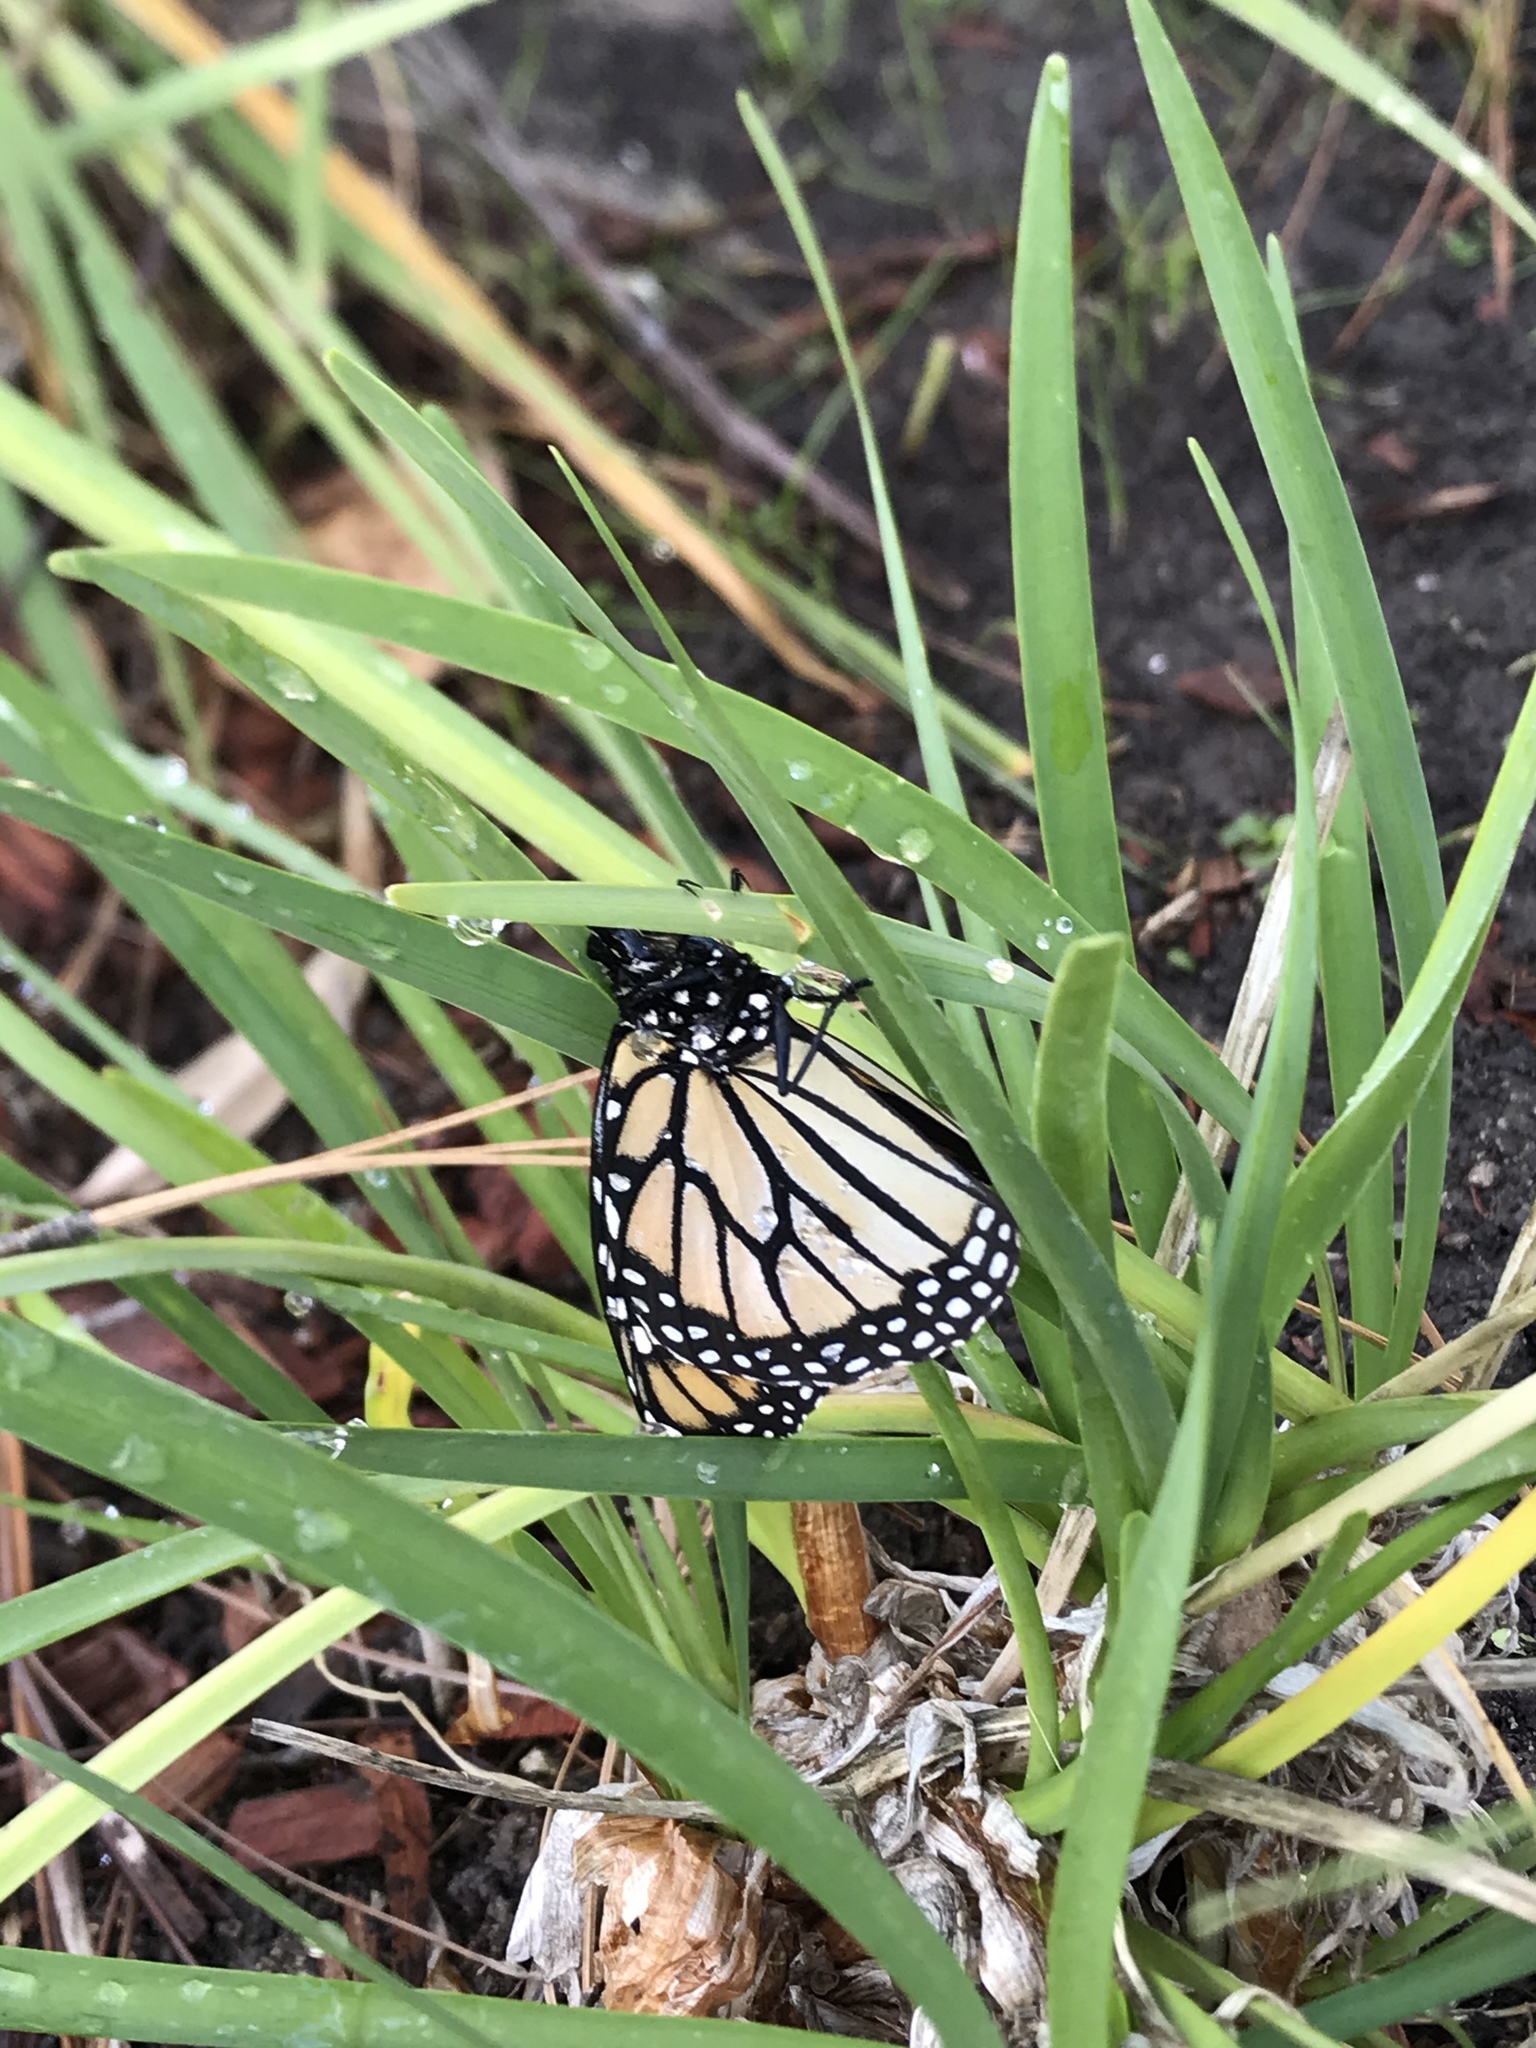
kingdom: Animalia
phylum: Arthropoda
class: Insecta
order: Lepidoptera
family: Nymphalidae
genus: Danaus
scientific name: Danaus plexippus
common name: Monarch
